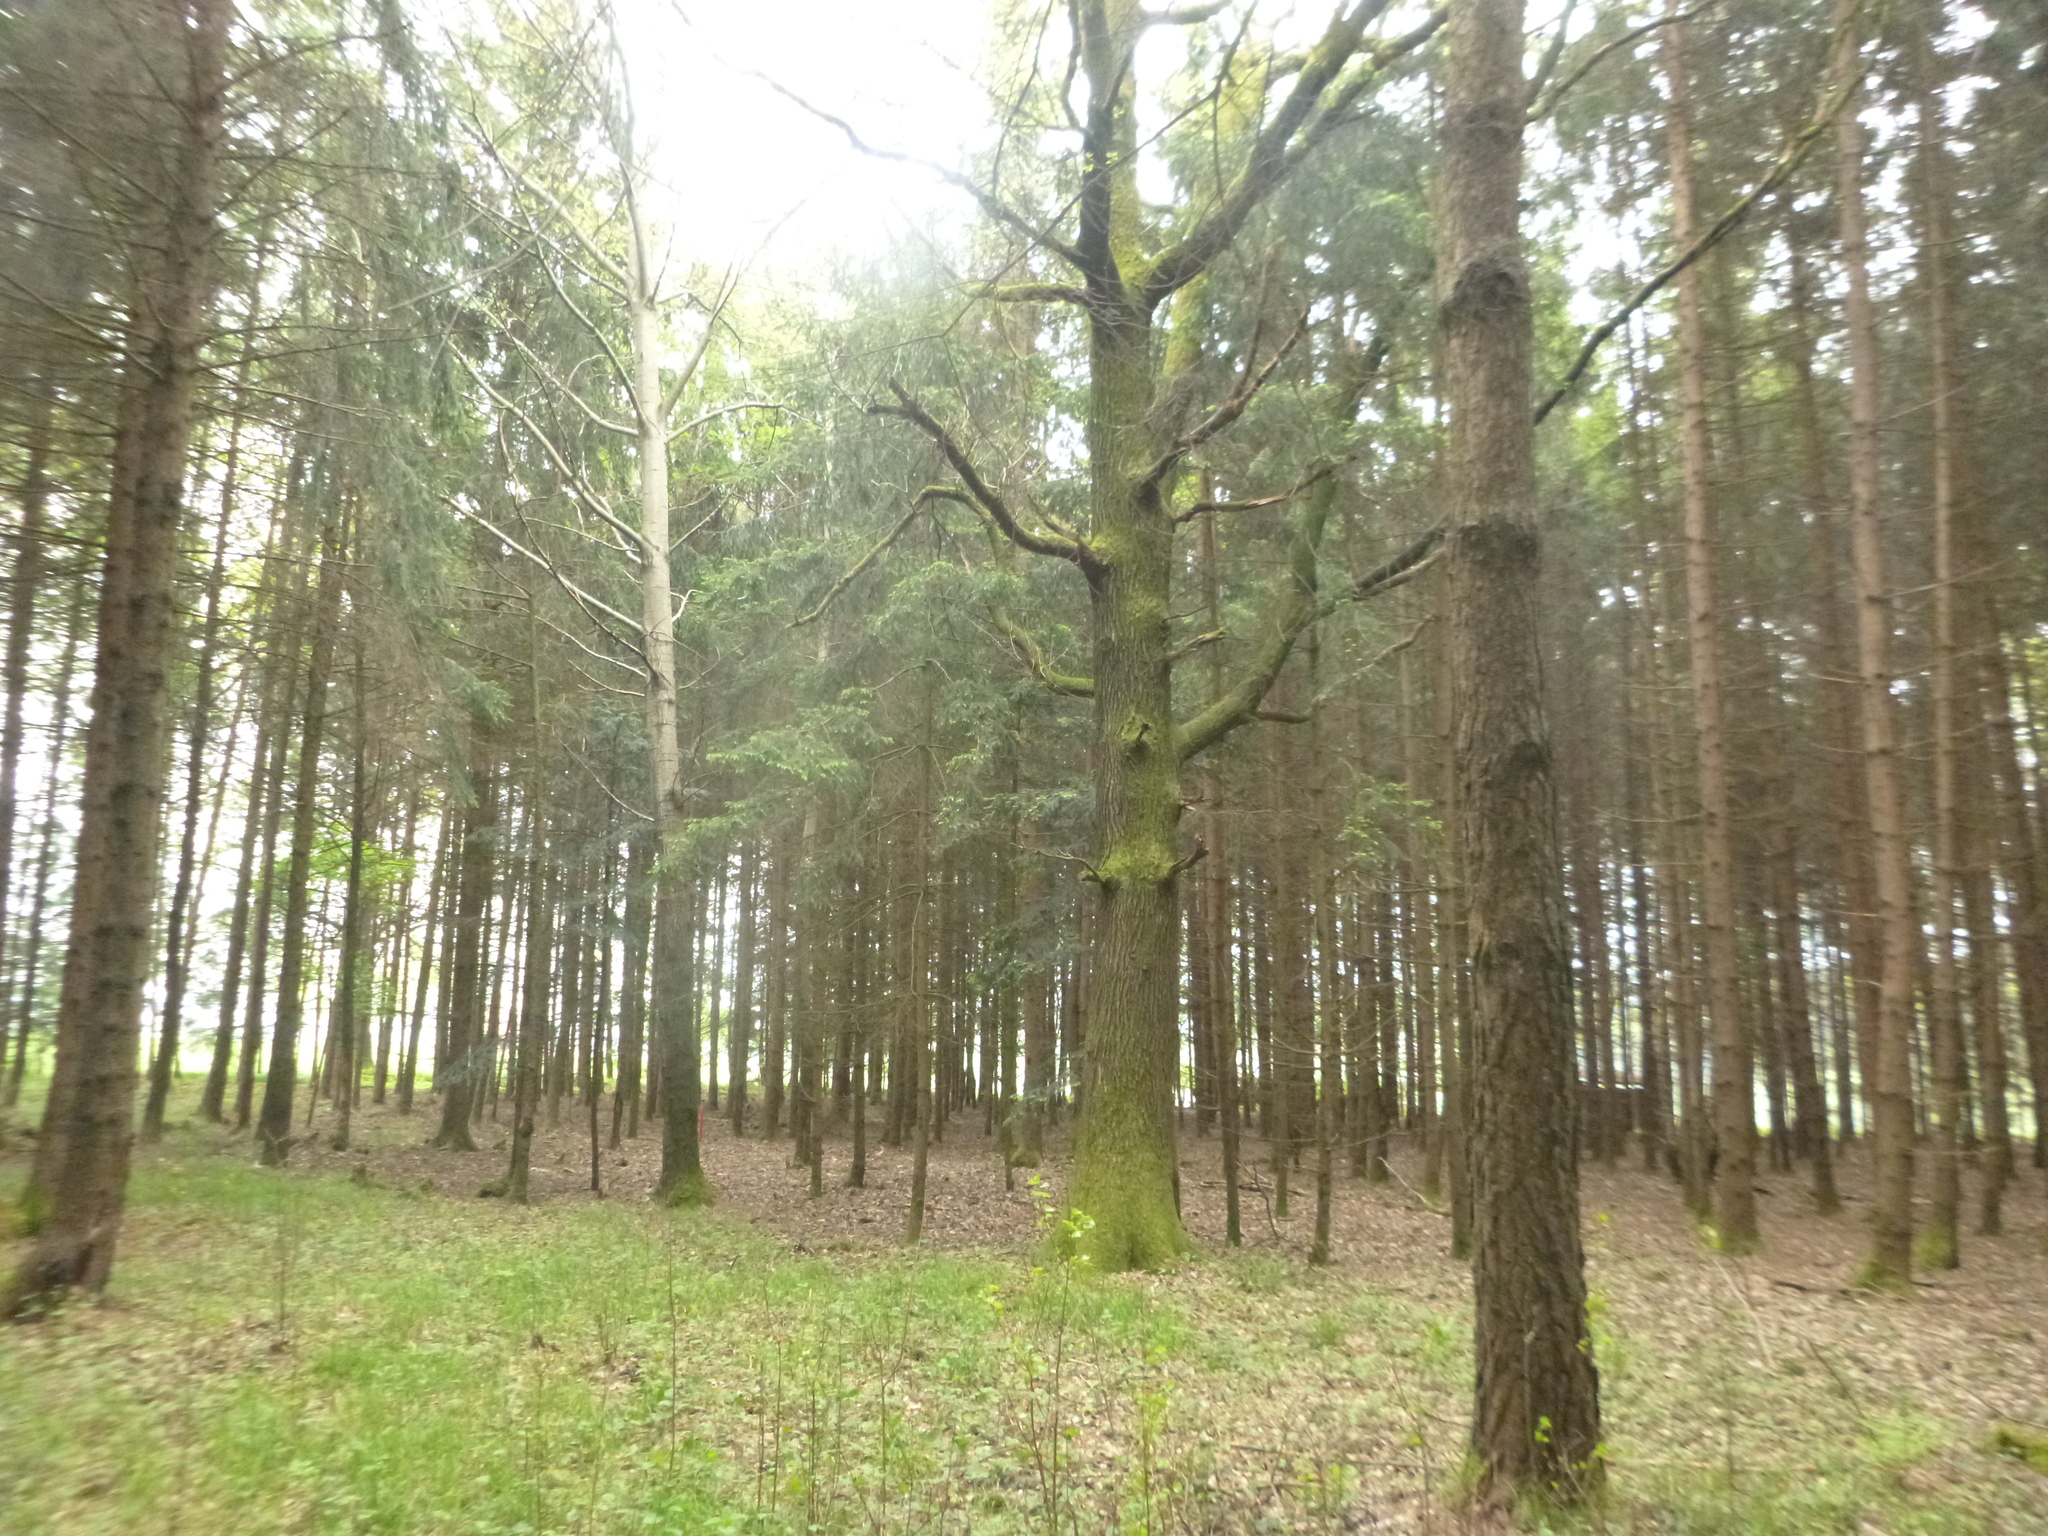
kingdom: Plantae
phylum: Tracheophyta
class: Pinopsida
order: Pinales
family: Pinaceae
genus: Pinus
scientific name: Pinus sylvestris
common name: Scots pine
